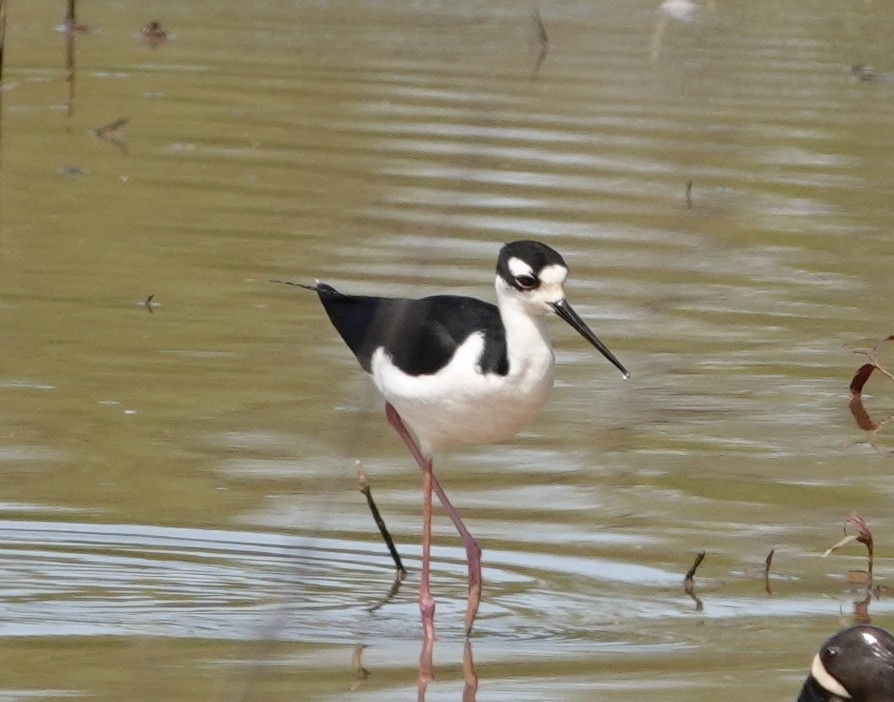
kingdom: Animalia
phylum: Chordata
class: Aves
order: Charadriiformes
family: Recurvirostridae
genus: Himantopus
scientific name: Himantopus mexicanus
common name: Black-necked stilt
